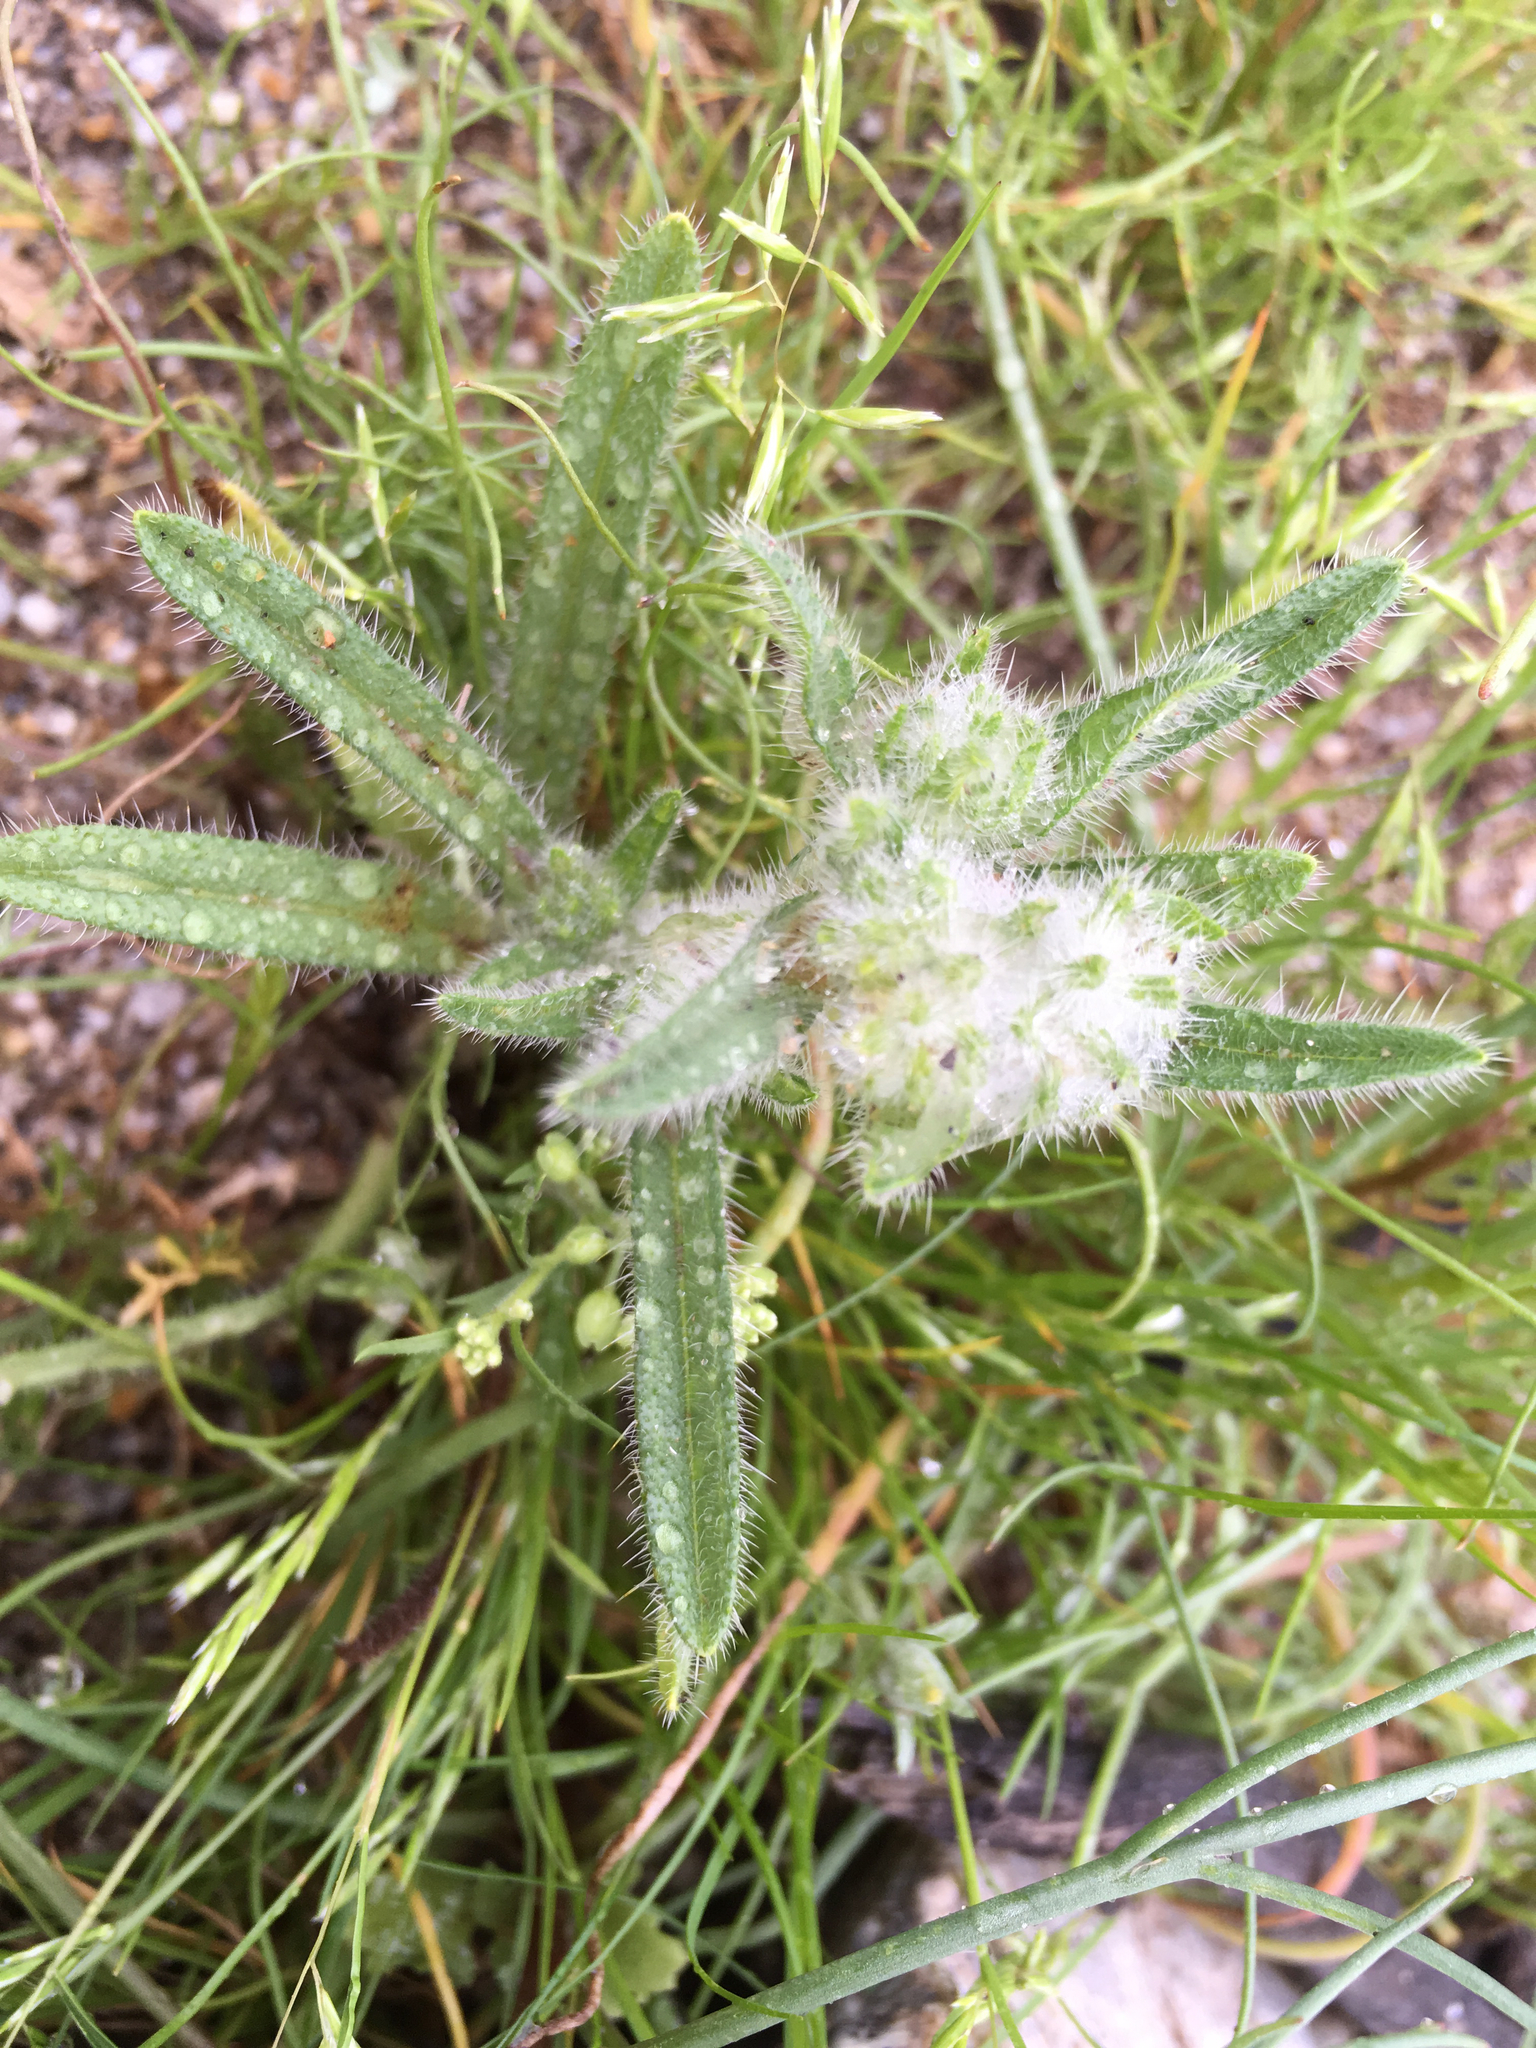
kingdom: Plantae
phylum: Tracheophyta
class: Magnoliopsida
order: Boraginales
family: Boraginaceae
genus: Cryptantha
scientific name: Cryptantha barbigera
